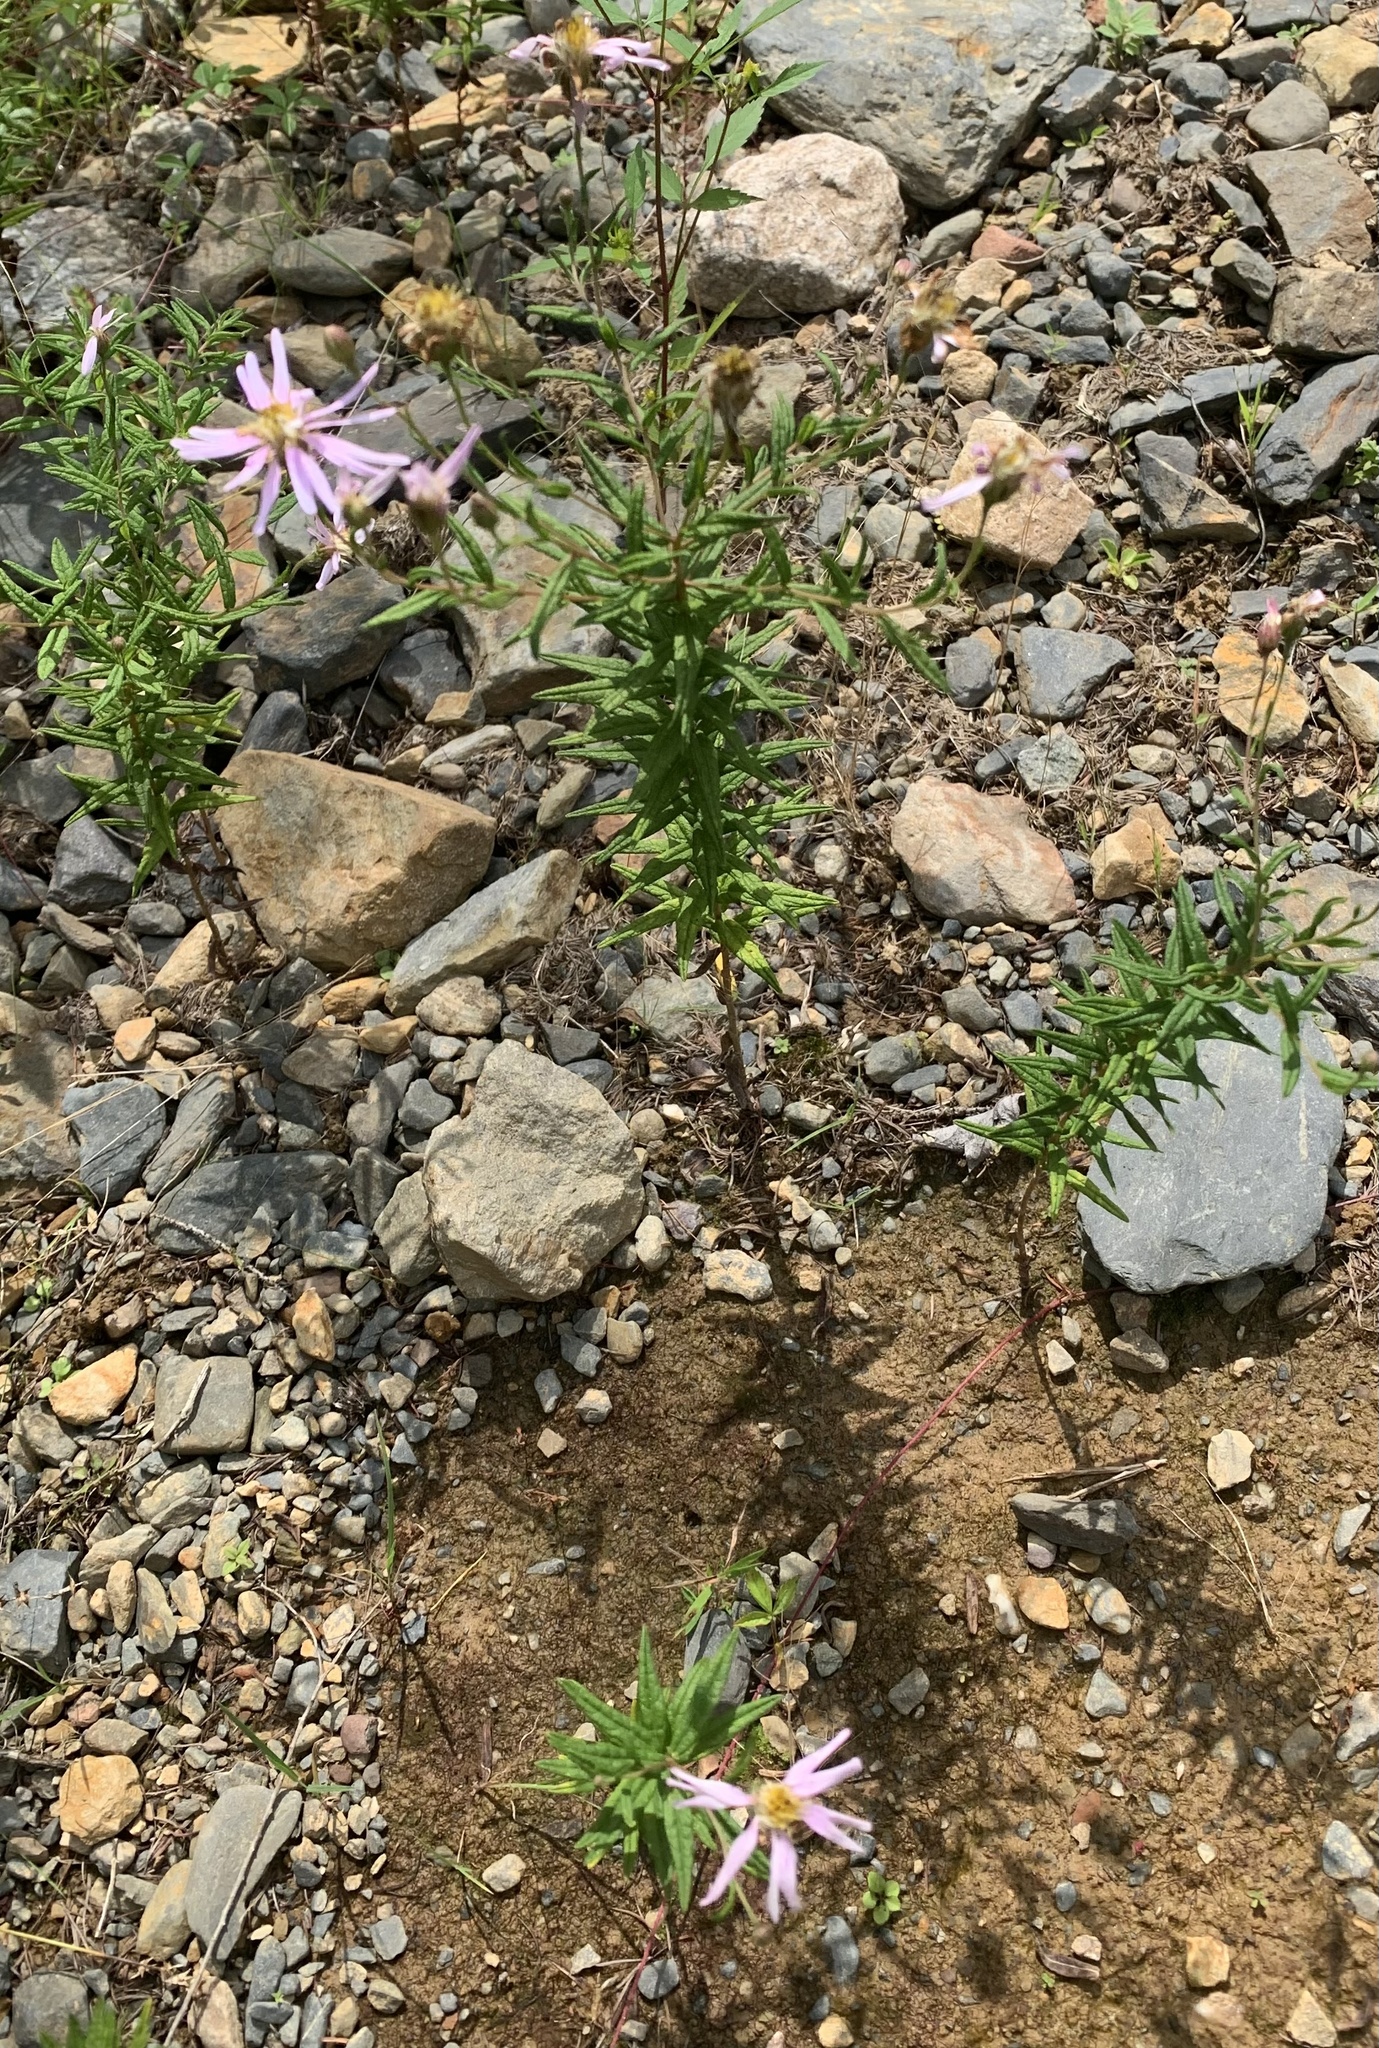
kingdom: Plantae
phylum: Tracheophyta
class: Magnoliopsida
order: Asterales
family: Asteraceae
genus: Oclemena
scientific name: Oclemena nemoralis
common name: Bog aster
